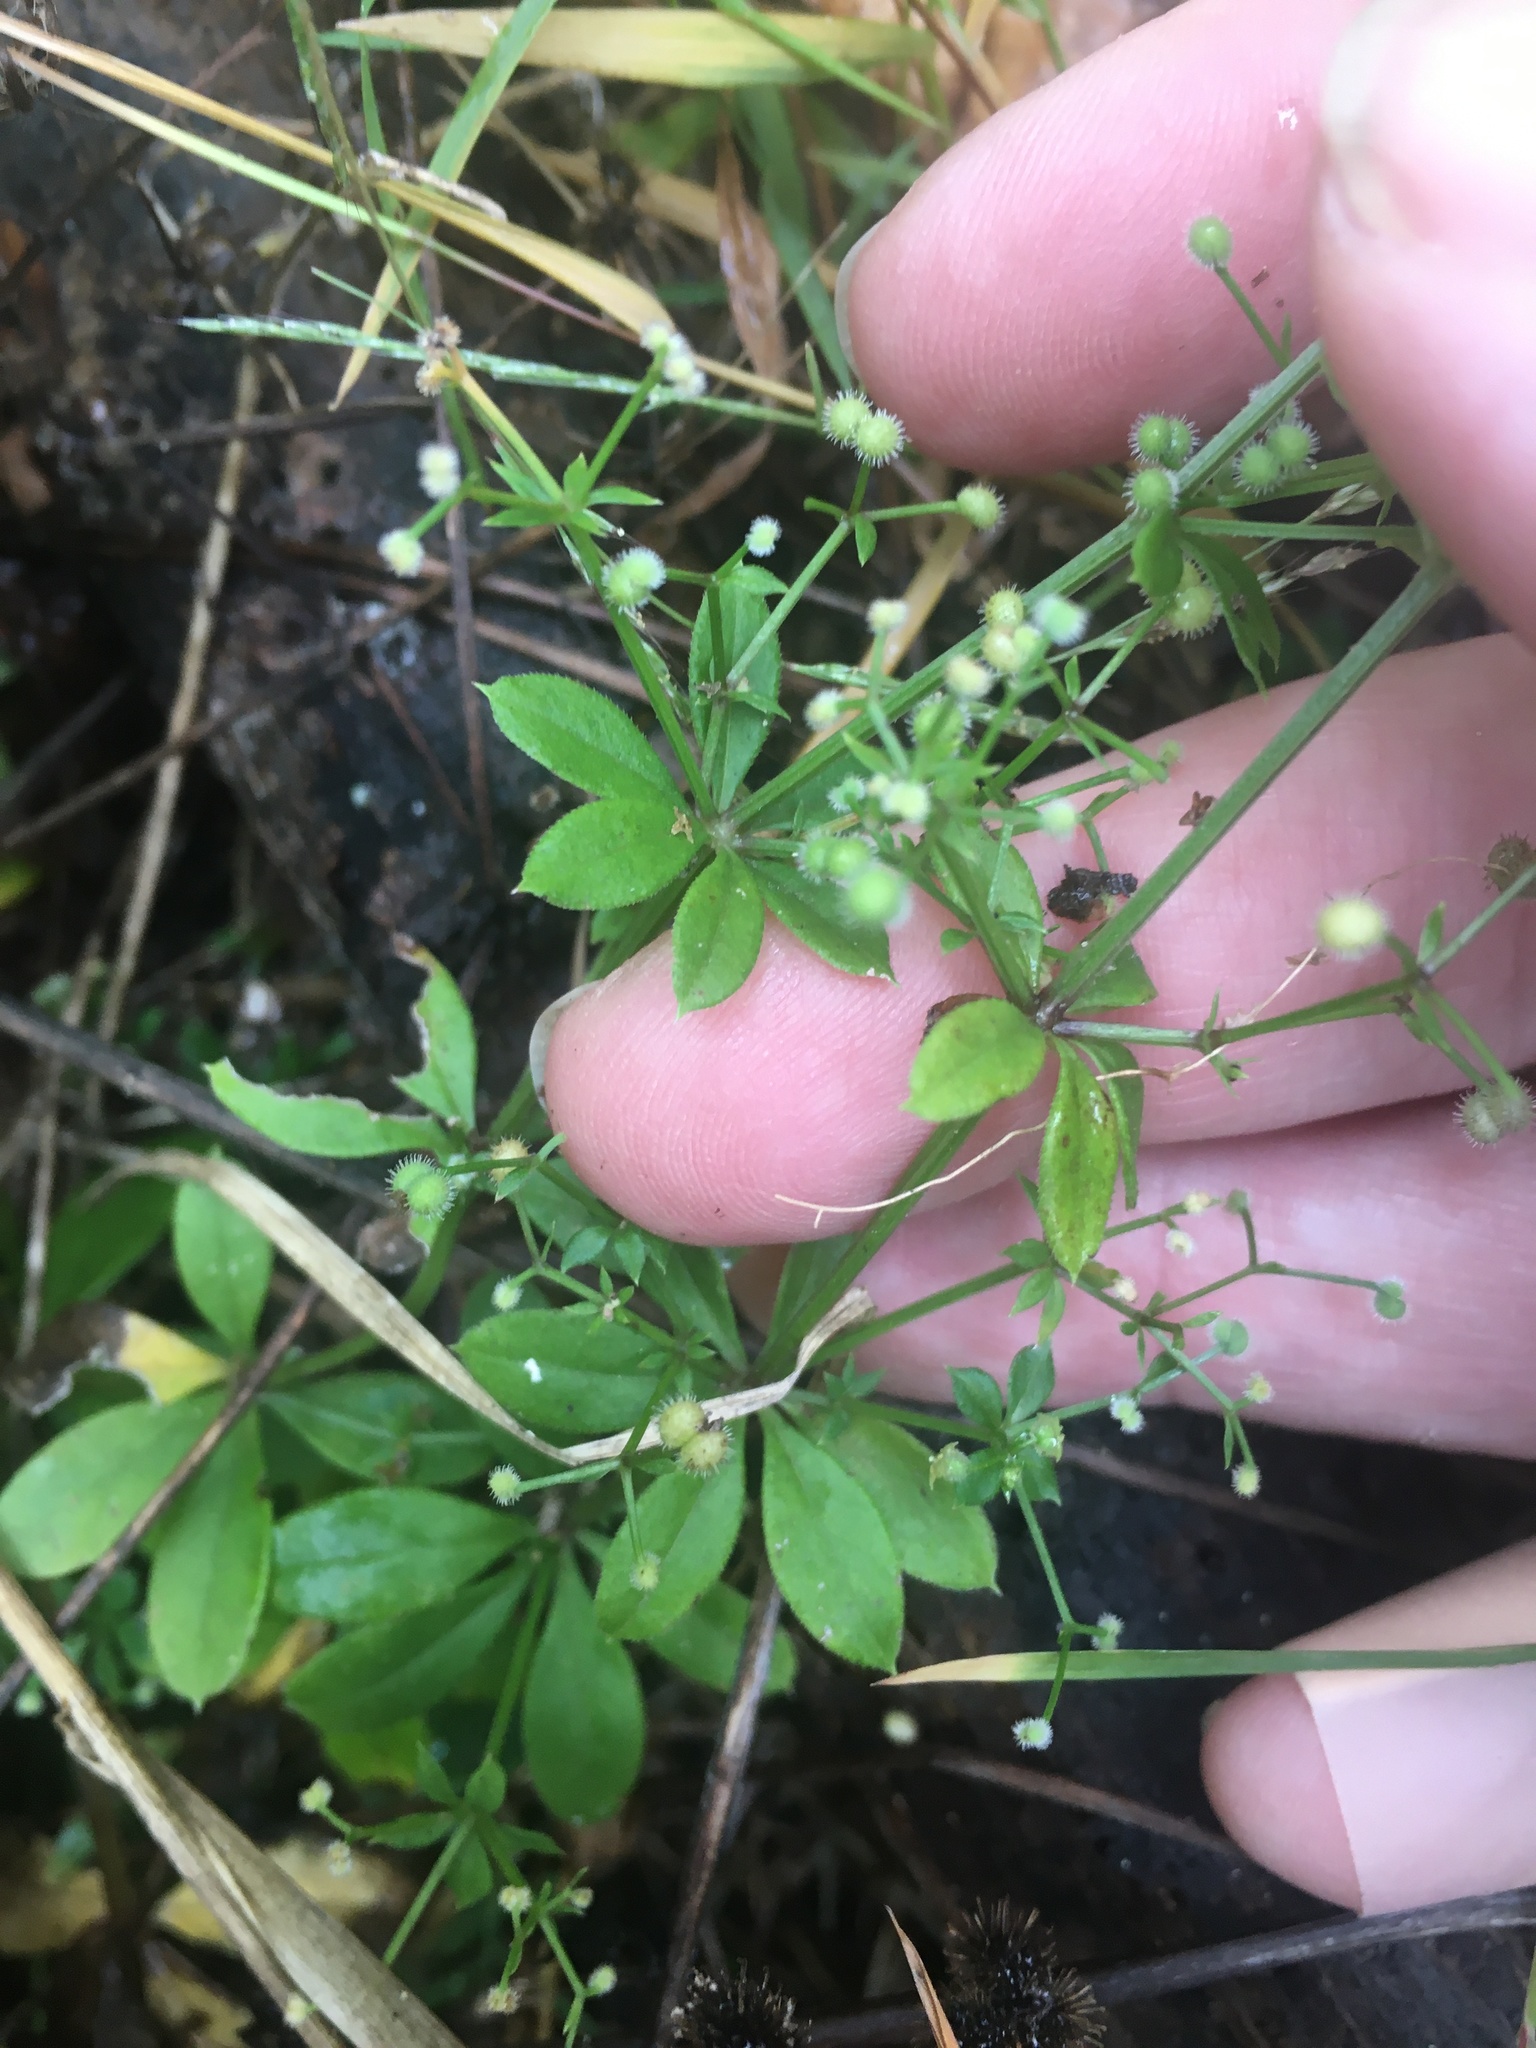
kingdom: Plantae
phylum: Tracheophyta
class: Magnoliopsida
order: Gentianales
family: Rubiaceae
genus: Galium
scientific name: Galium triflorum
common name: Fragrant bedstraw
